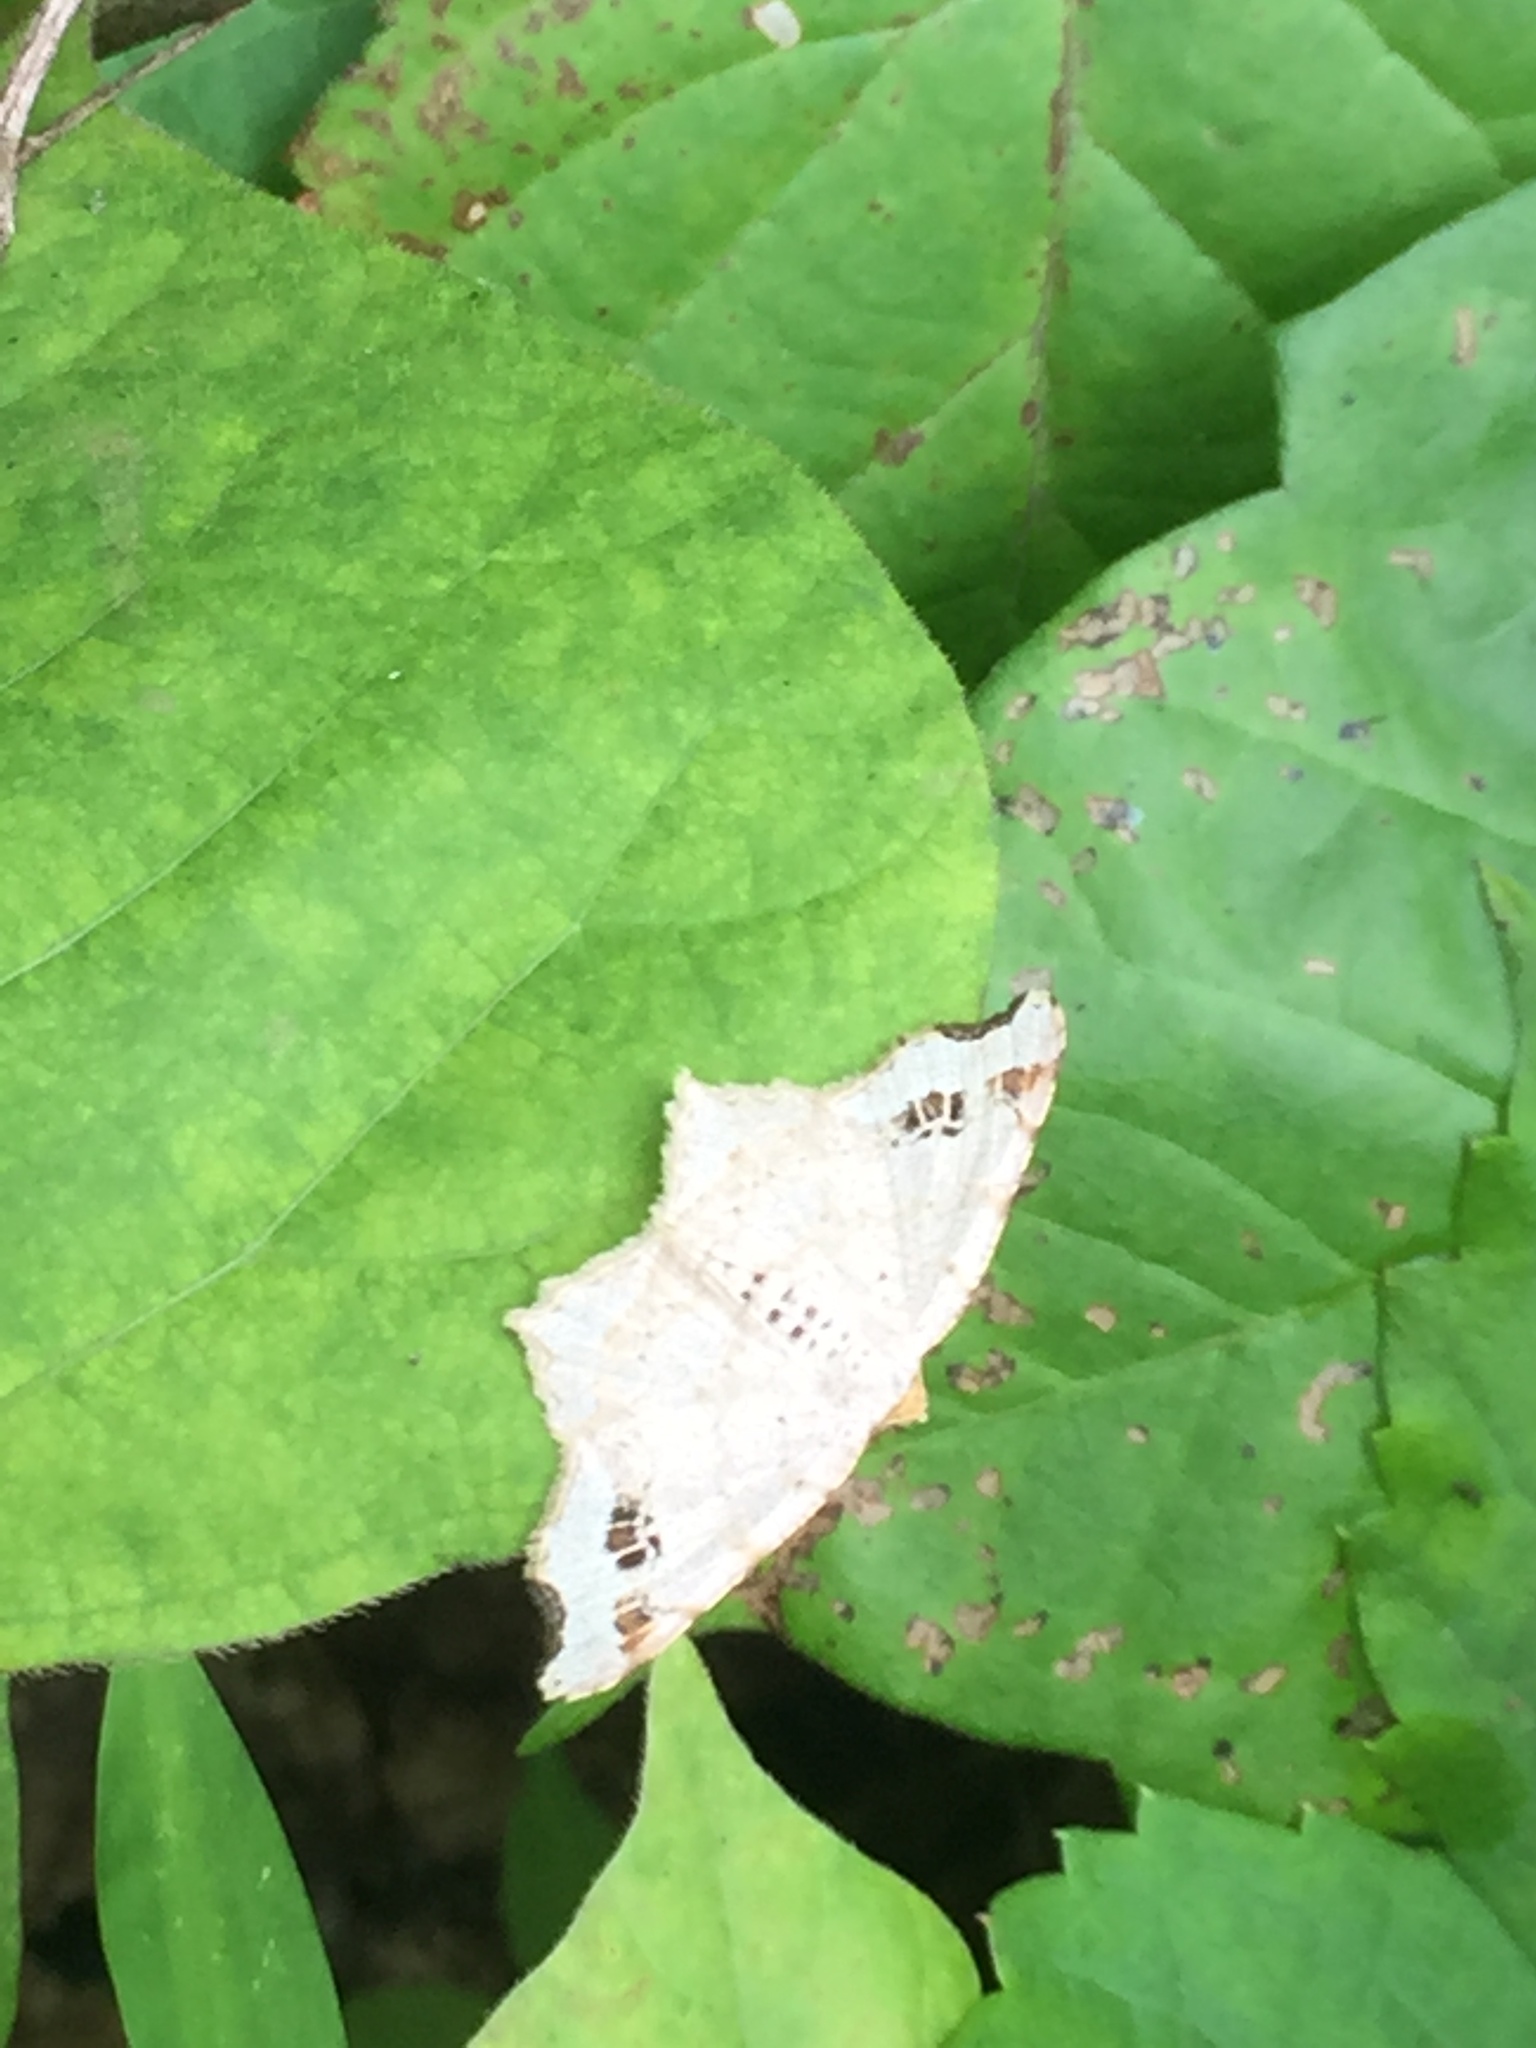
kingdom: Animalia
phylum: Arthropoda
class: Insecta
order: Lepidoptera
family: Geometridae
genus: Macaria
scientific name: Macaria aemulataria
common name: Common angle
